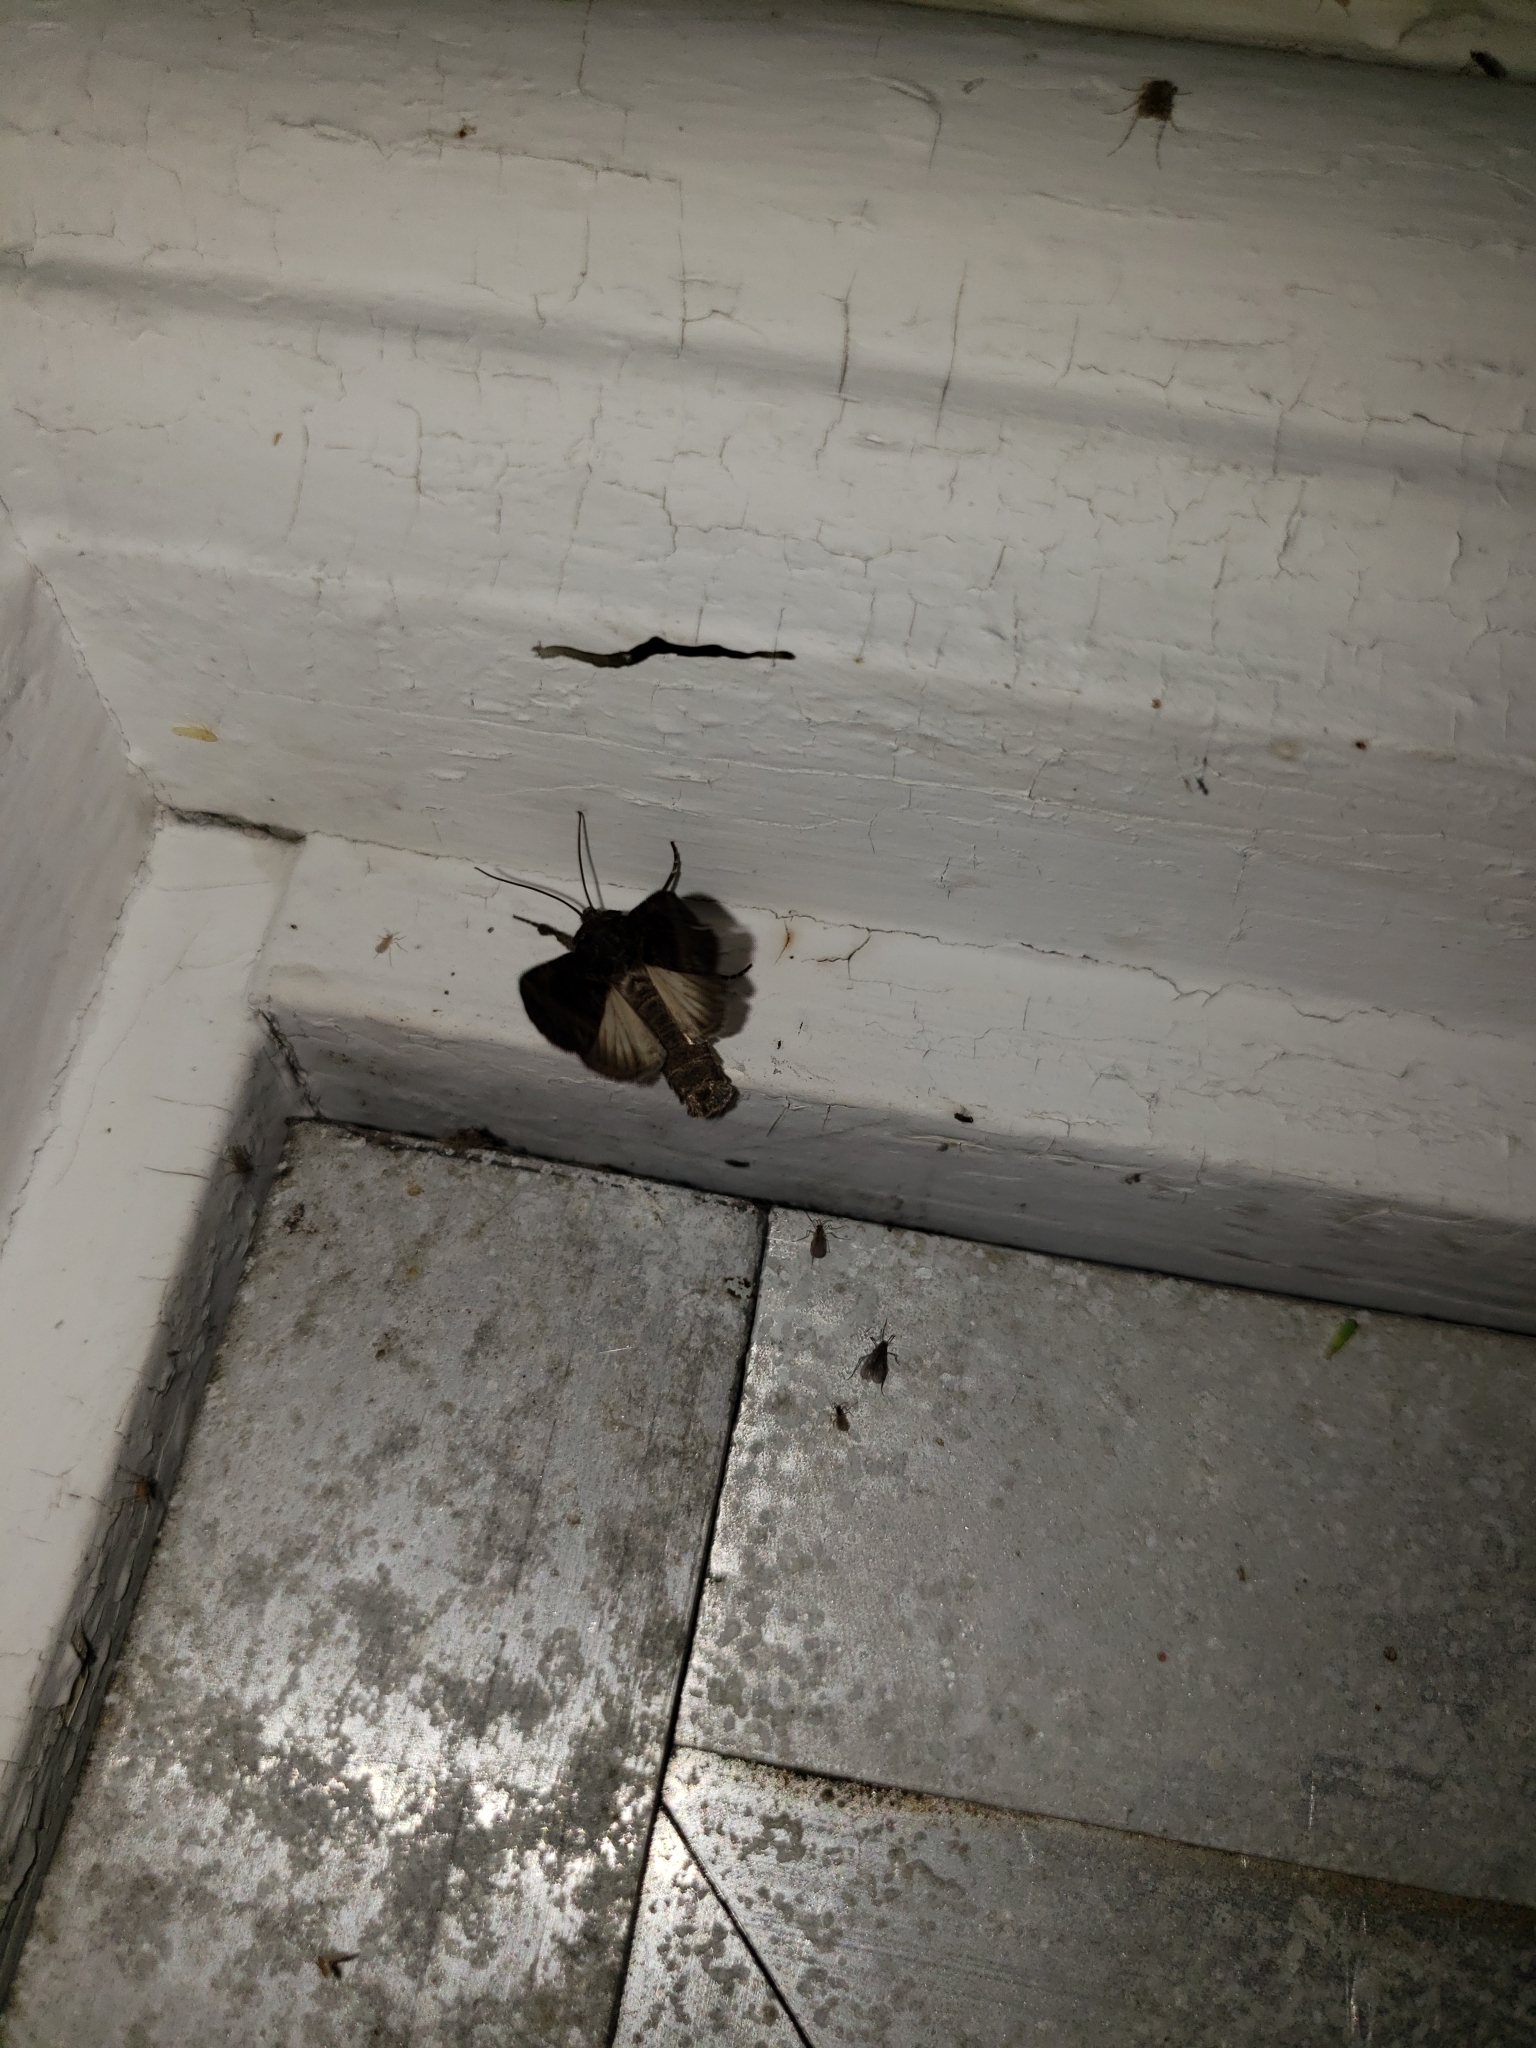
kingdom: Animalia
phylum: Arthropoda
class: Insecta
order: Lepidoptera
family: Noctuidae
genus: Lacinipolia
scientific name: Lacinipolia renigera
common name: Kidney-spotted minor
